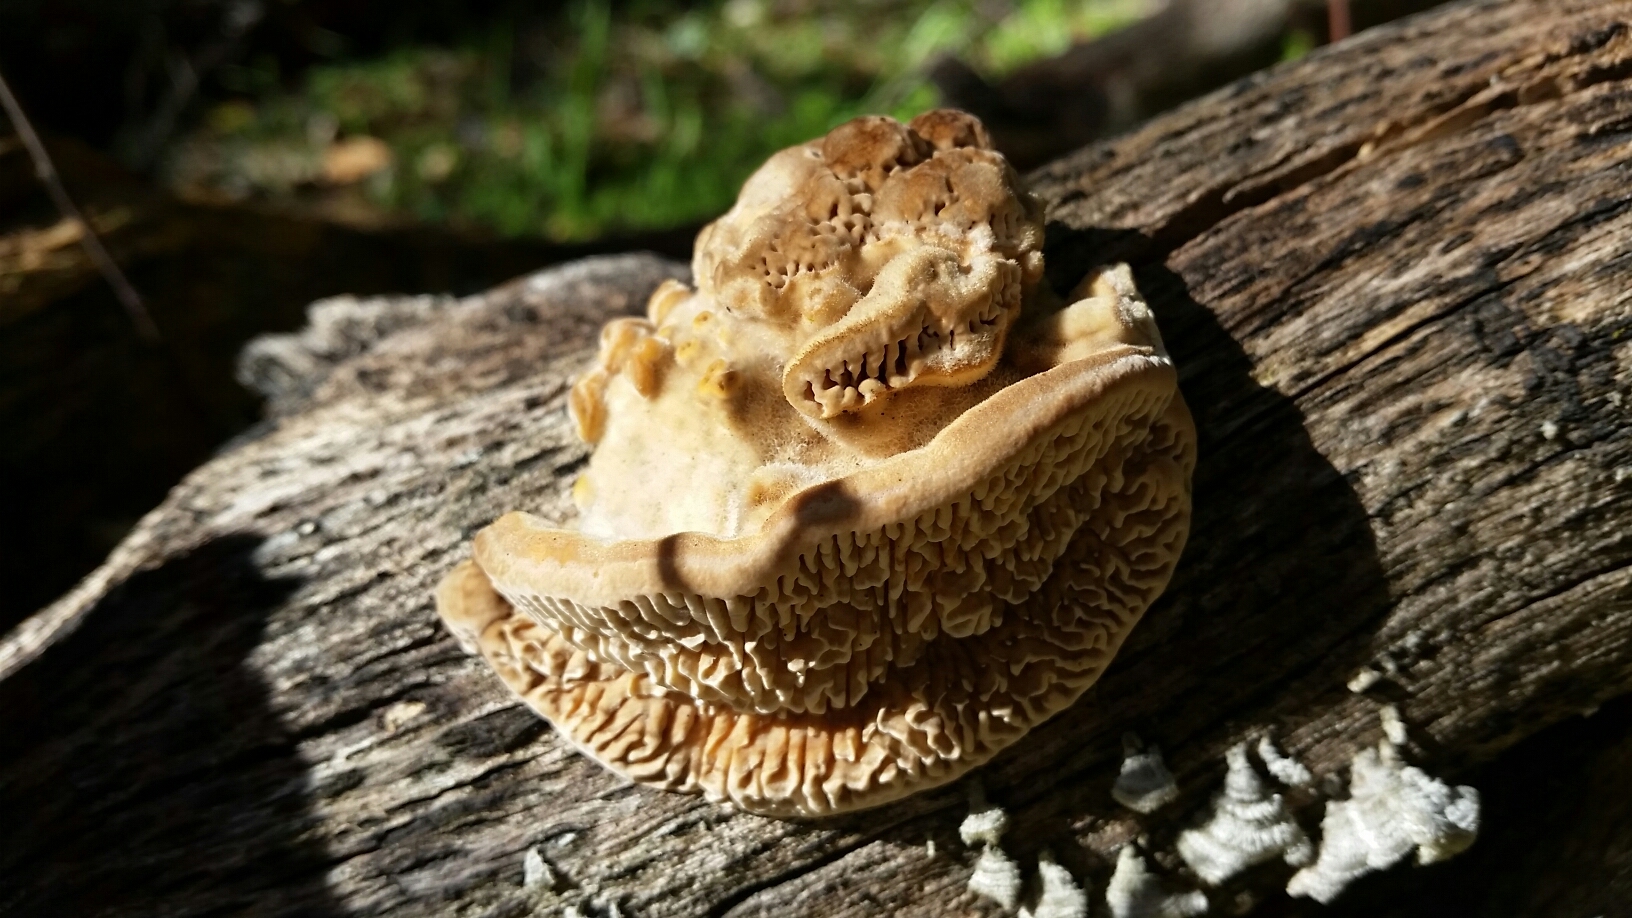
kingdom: Fungi
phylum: Basidiomycota
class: Agaricomycetes
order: Polyporales
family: Polyporaceae
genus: Lenzites
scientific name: Lenzites betulinus
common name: Birch mazegill
